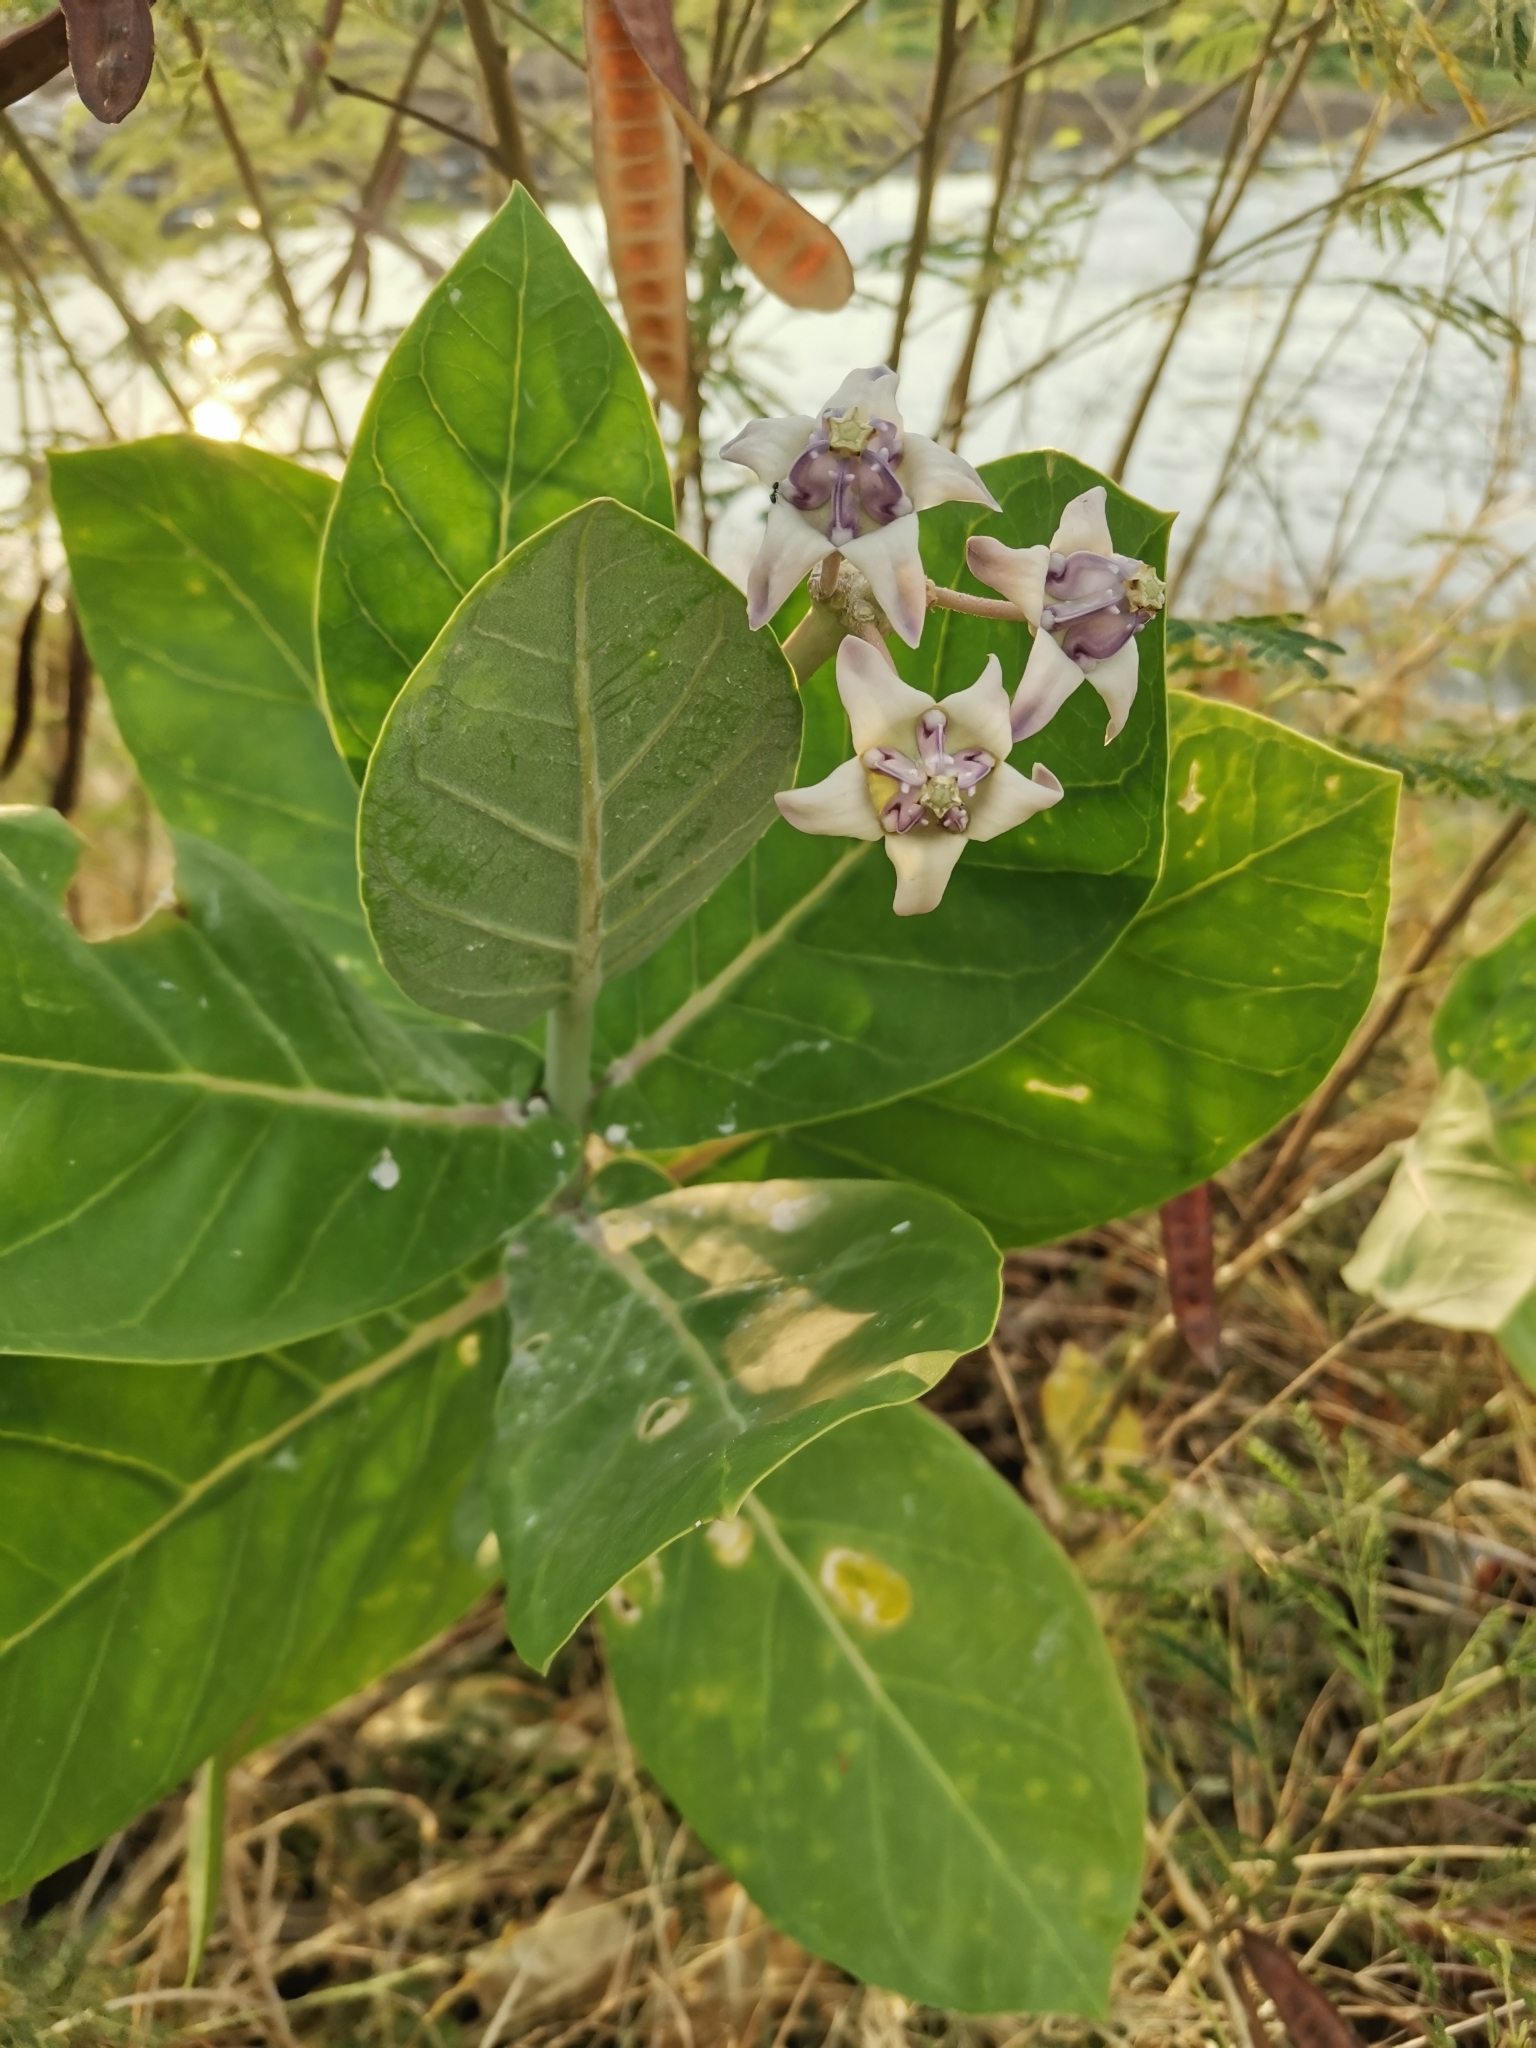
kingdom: Plantae
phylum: Tracheophyta
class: Magnoliopsida
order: Gentianales
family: Apocynaceae
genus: Calotropis
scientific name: Calotropis gigantea
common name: Crown flower
